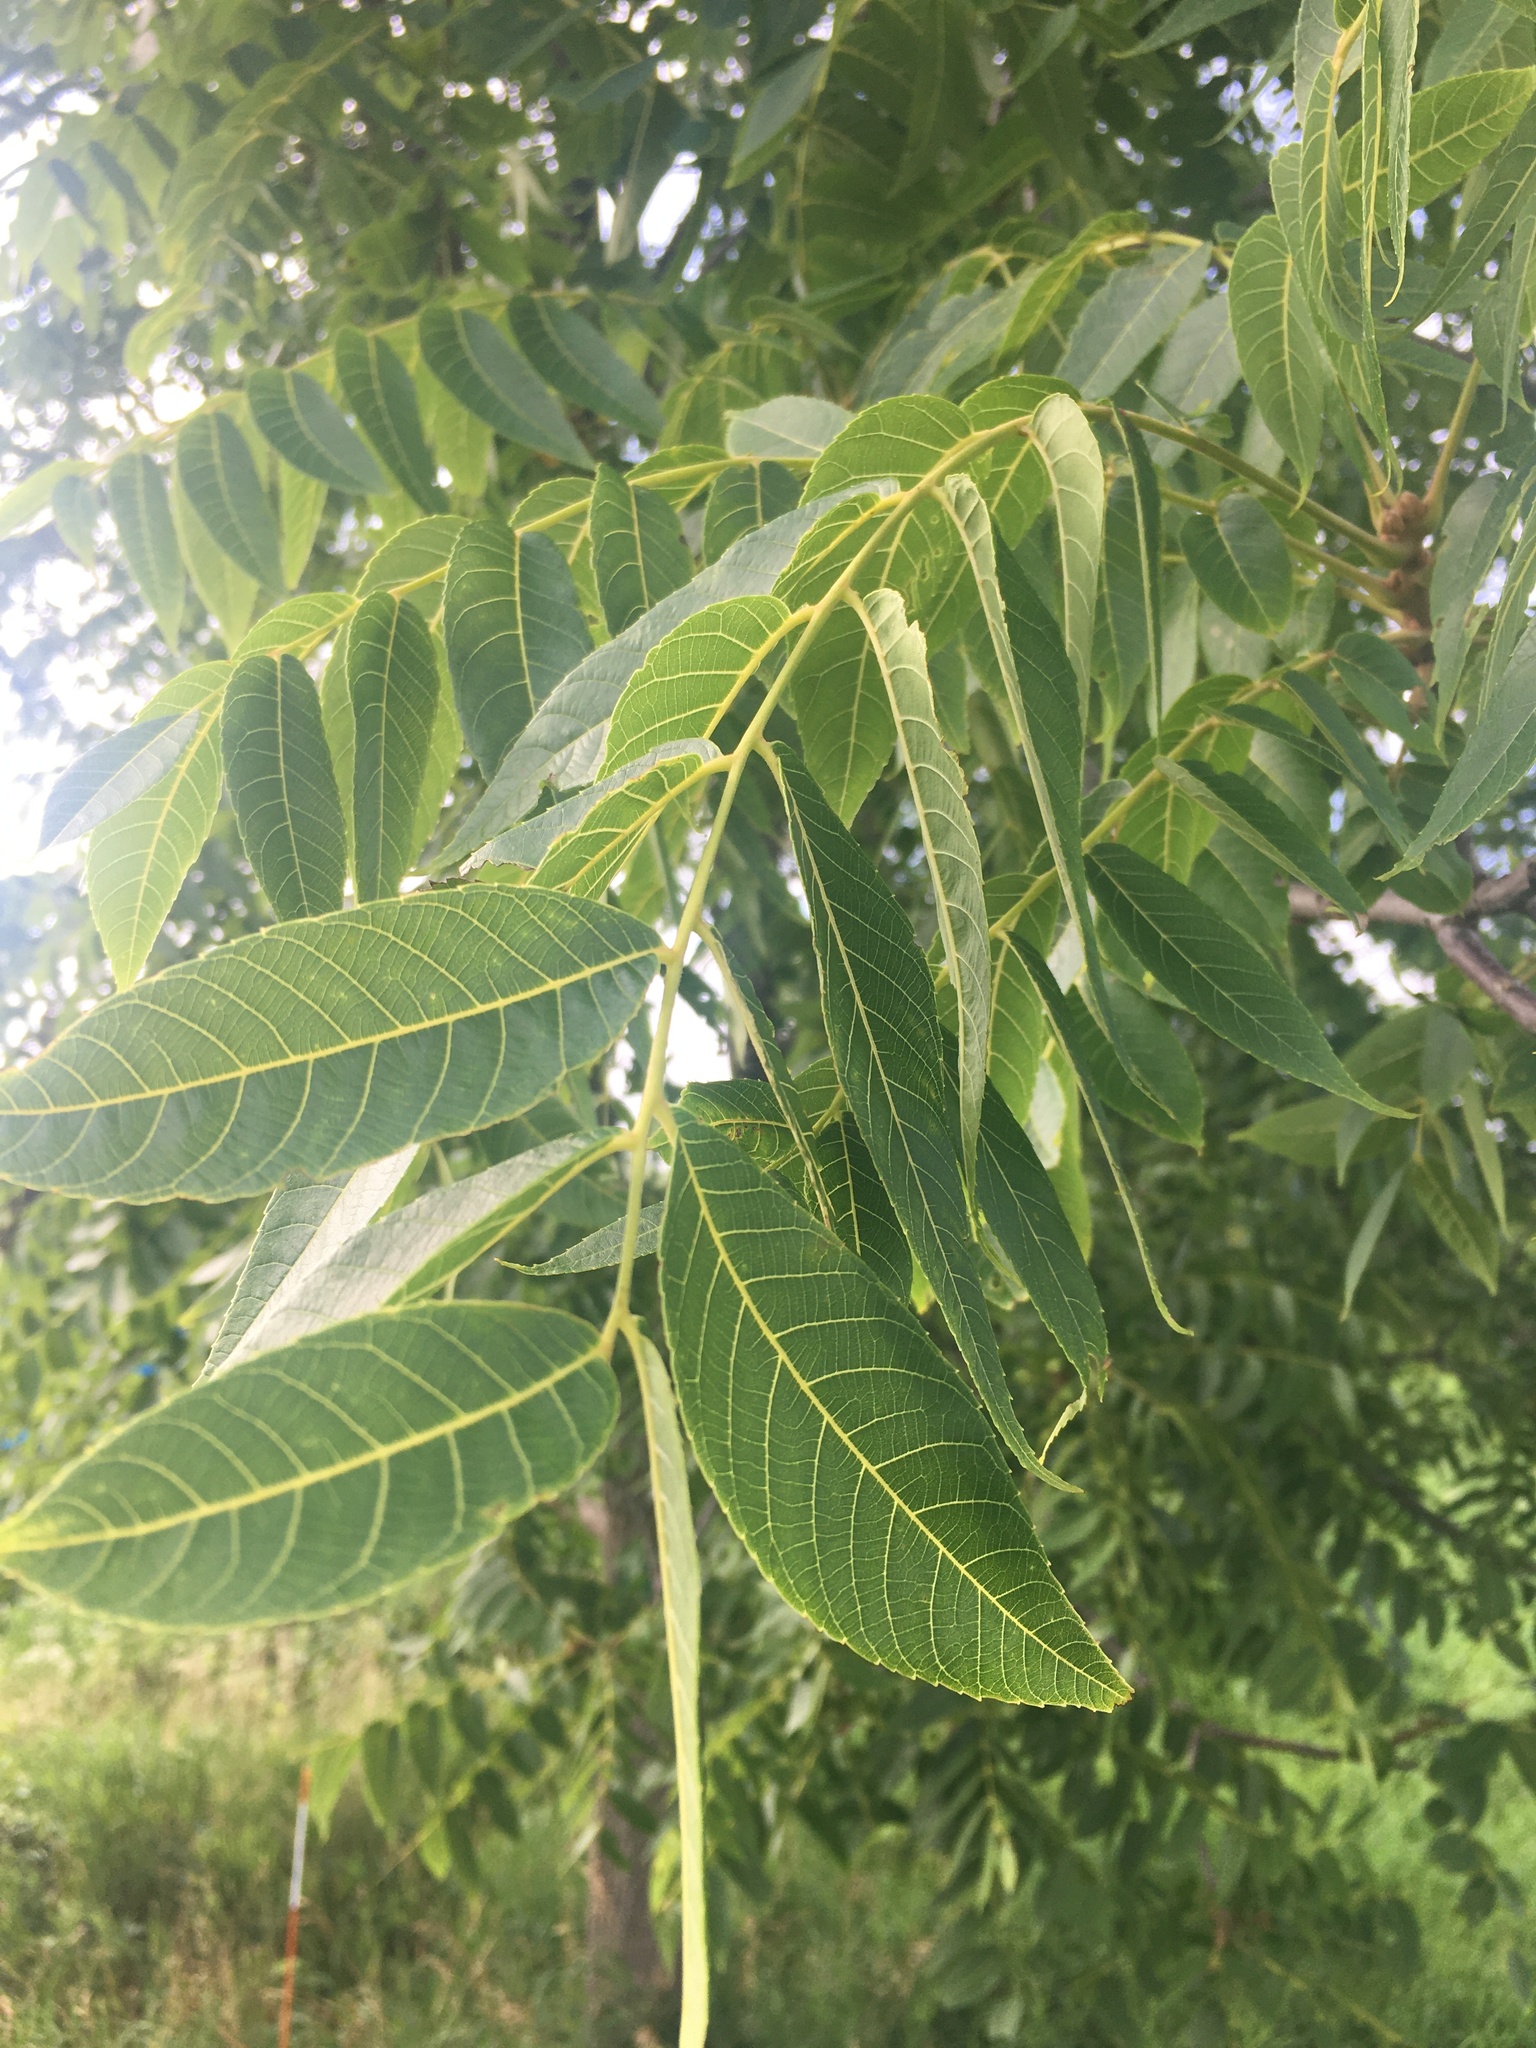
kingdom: Plantae
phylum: Tracheophyta
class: Magnoliopsida
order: Fagales
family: Juglandaceae
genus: Juglans
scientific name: Juglans nigra
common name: Black walnut
